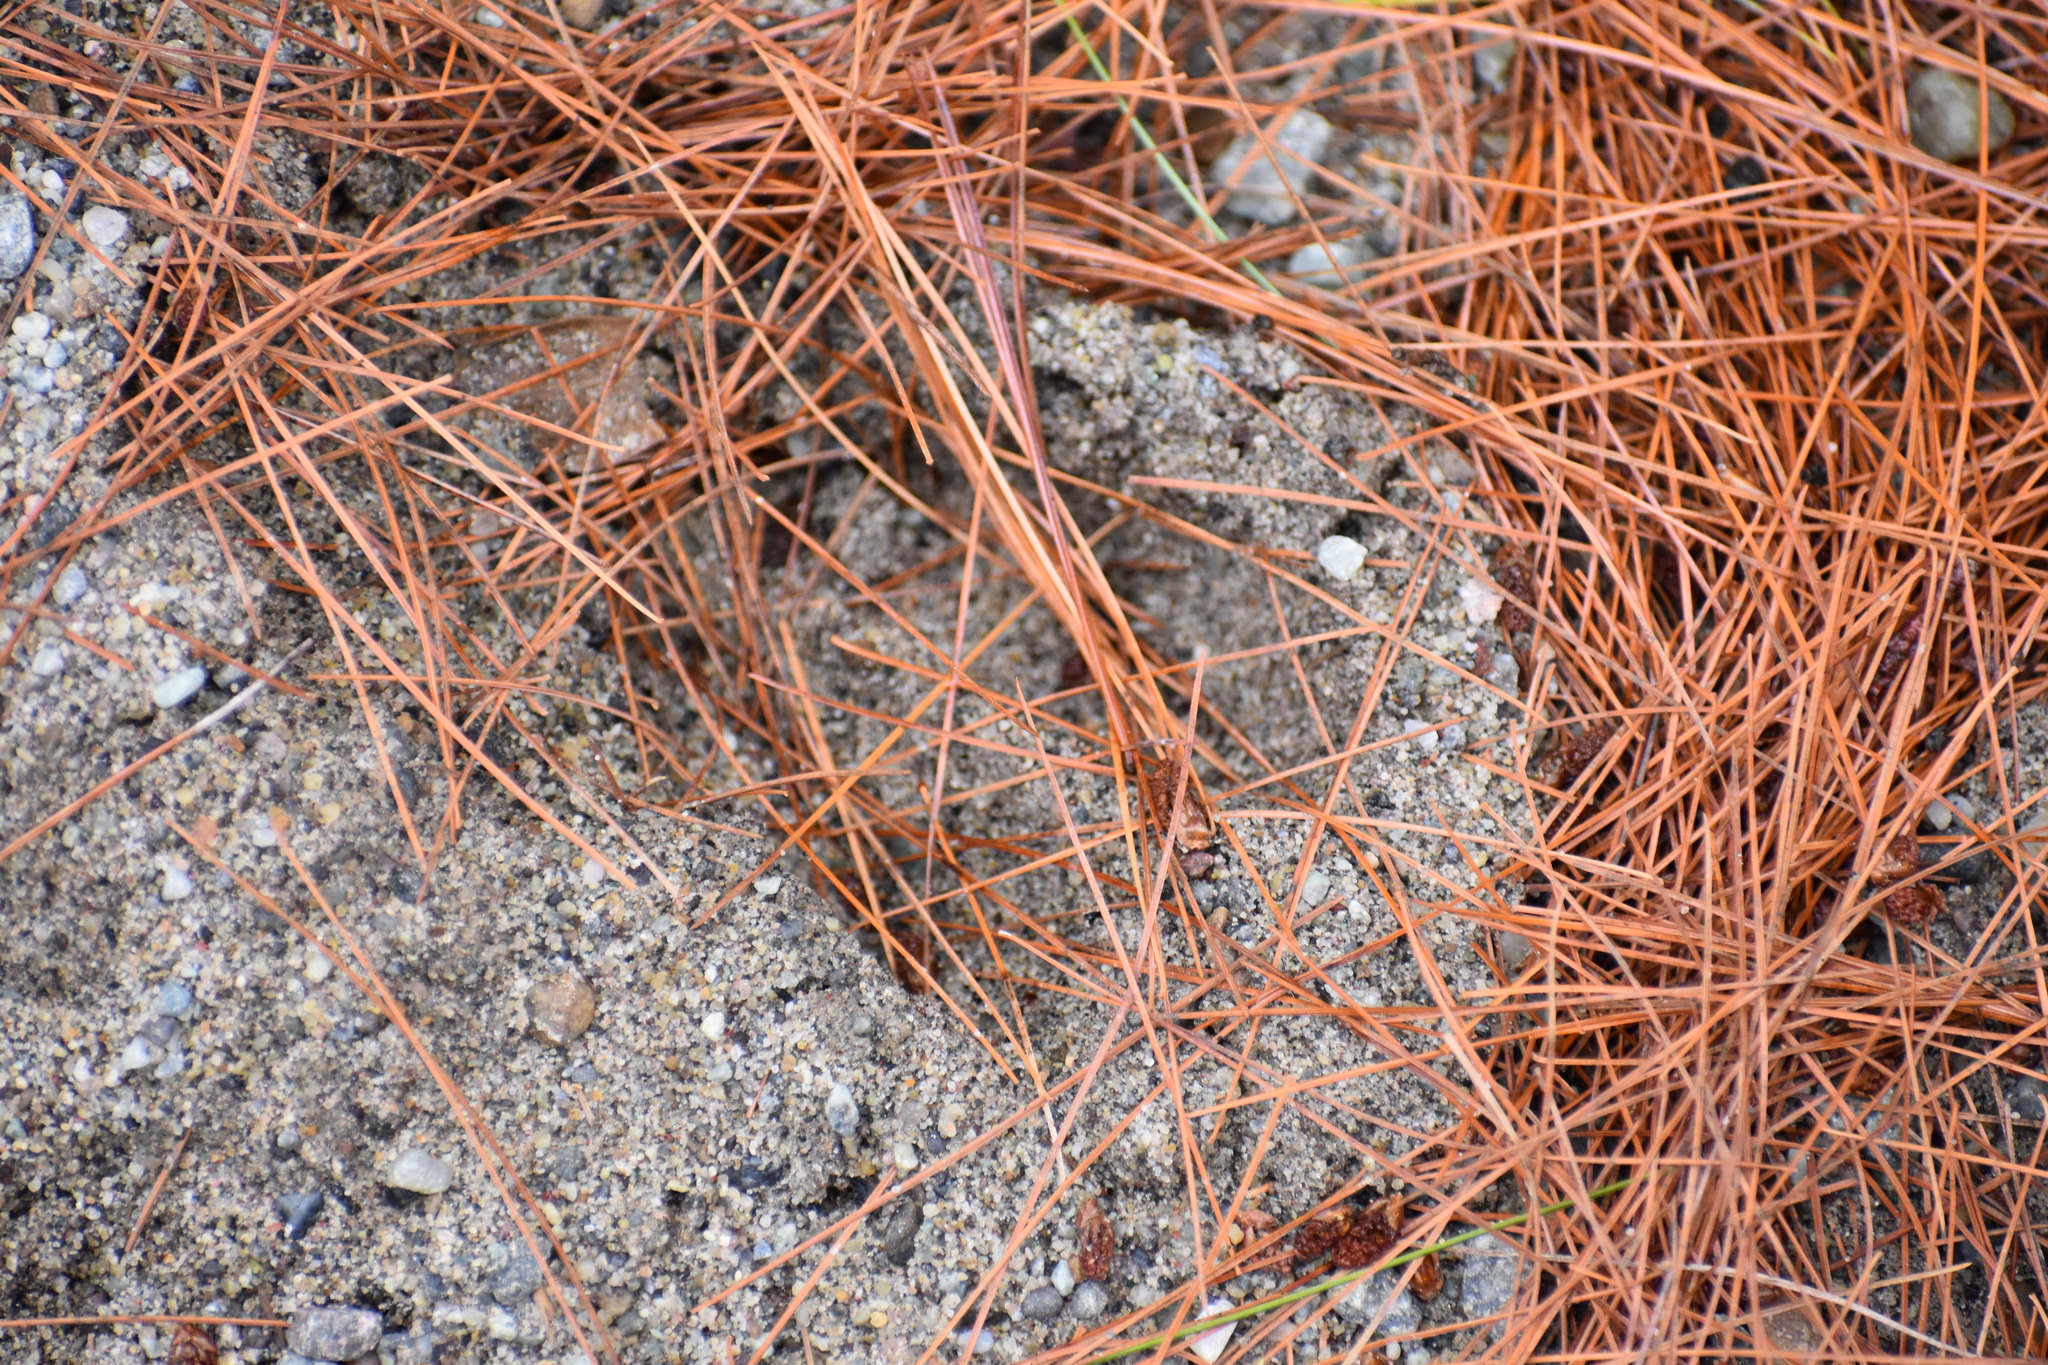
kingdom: Animalia
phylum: Chordata
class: Mammalia
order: Artiodactyla
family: Cervidae
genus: Odocoileus
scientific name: Odocoileus virginianus
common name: White-tailed deer
